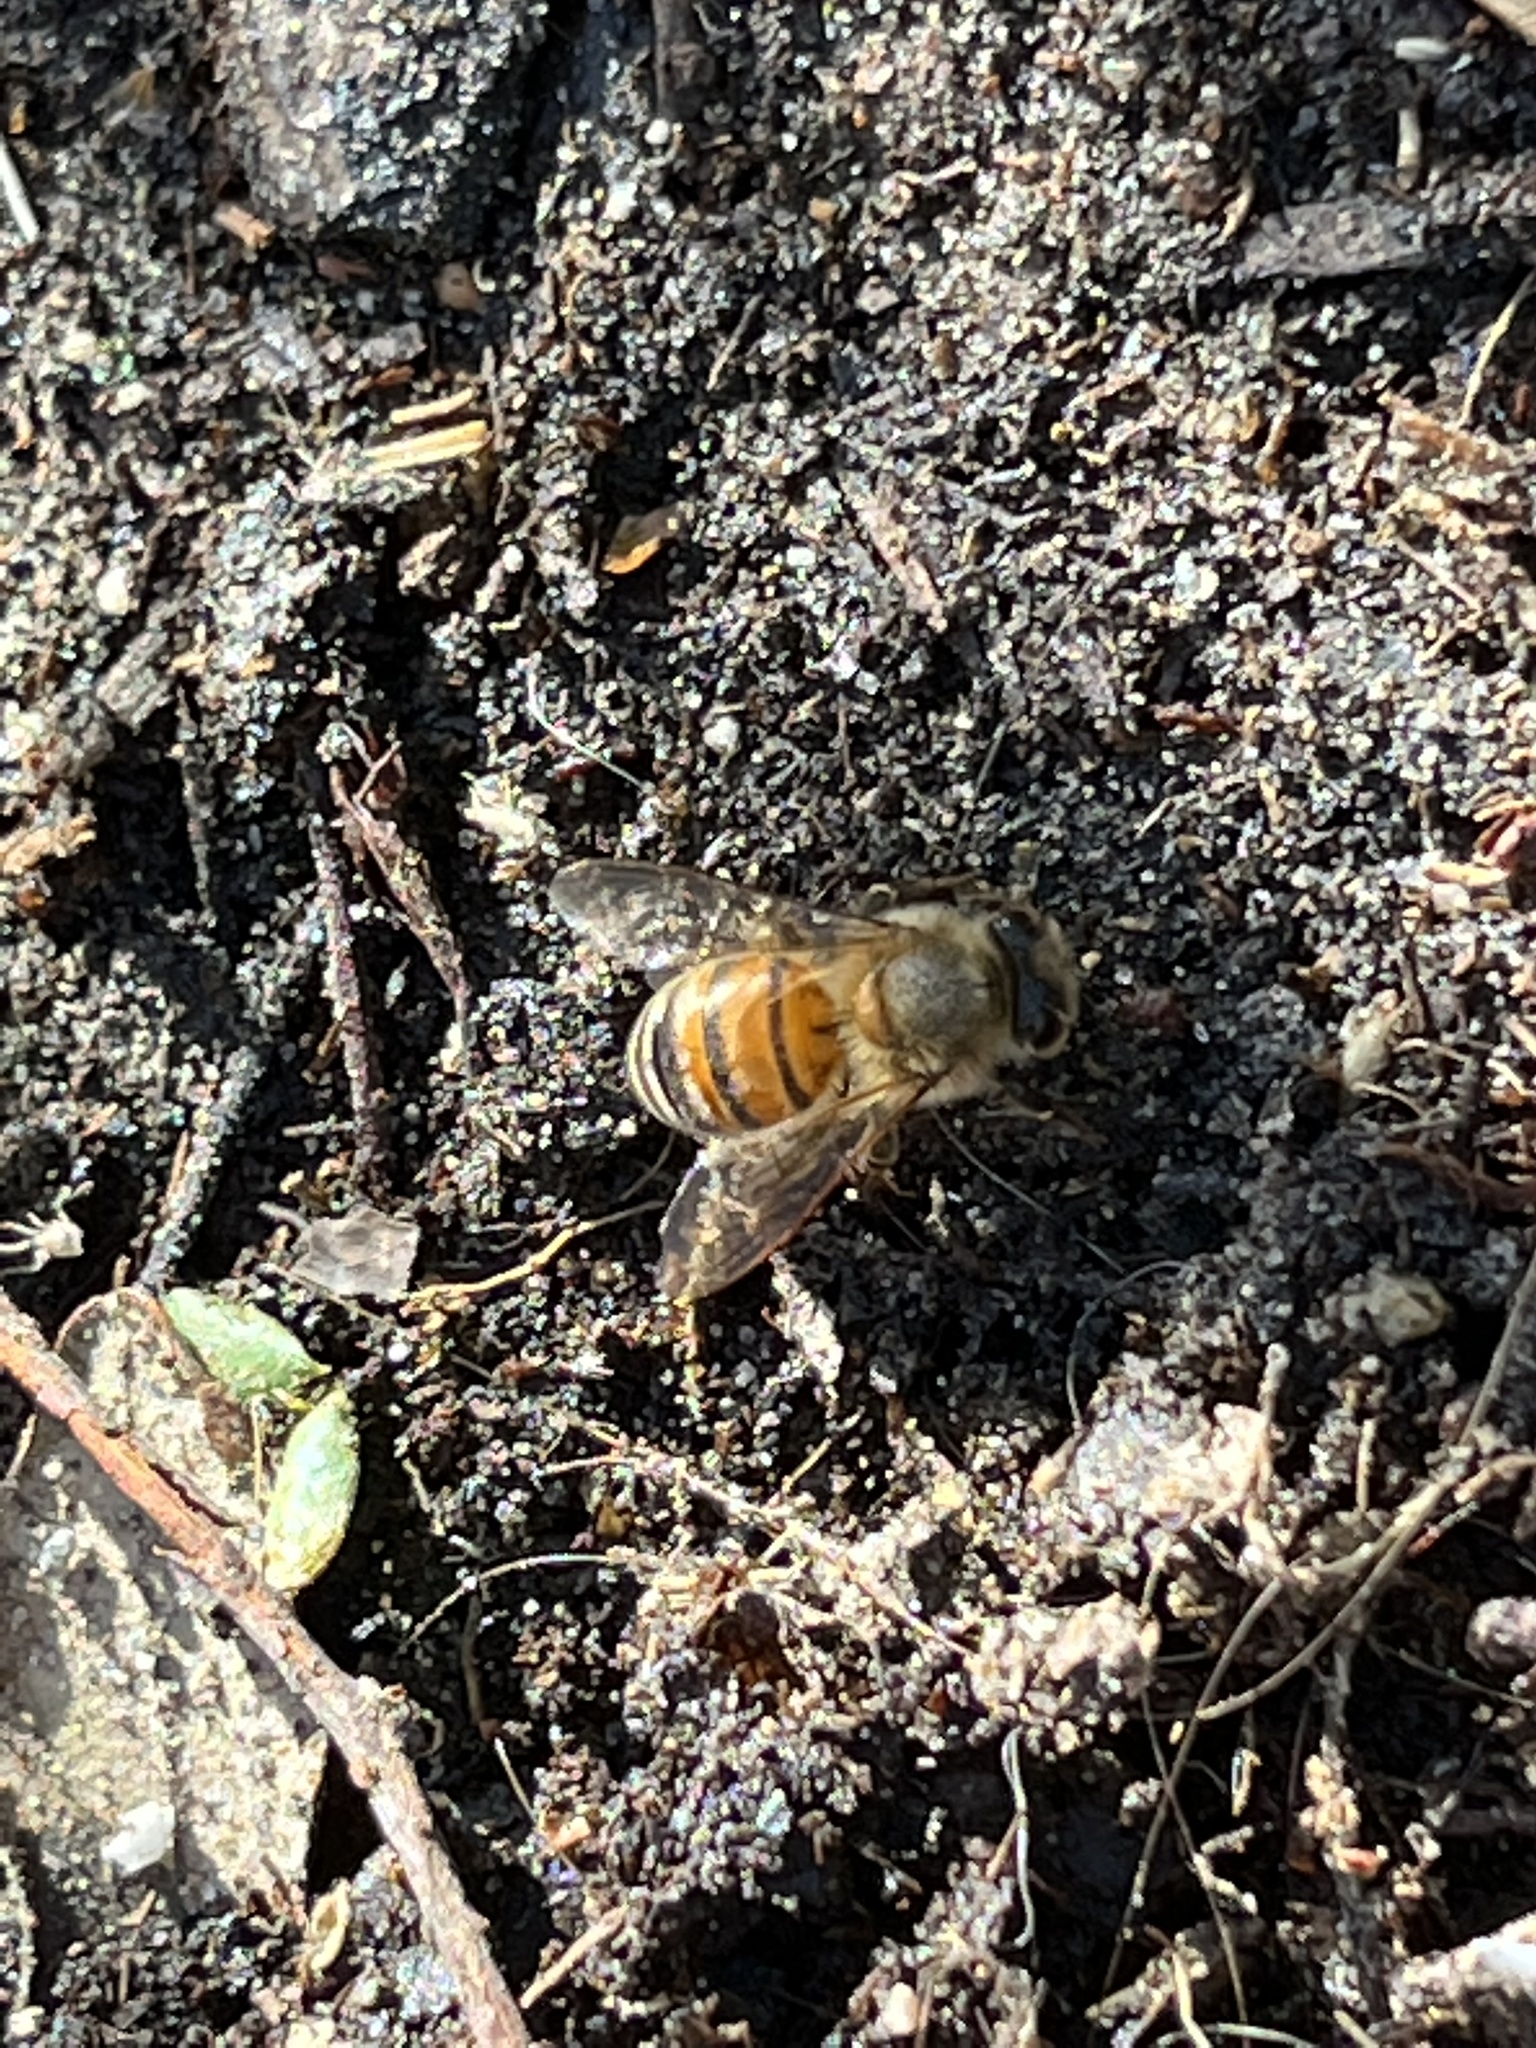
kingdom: Animalia
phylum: Arthropoda
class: Insecta
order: Hymenoptera
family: Apidae
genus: Apis
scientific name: Apis mellifera
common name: Honey bee
